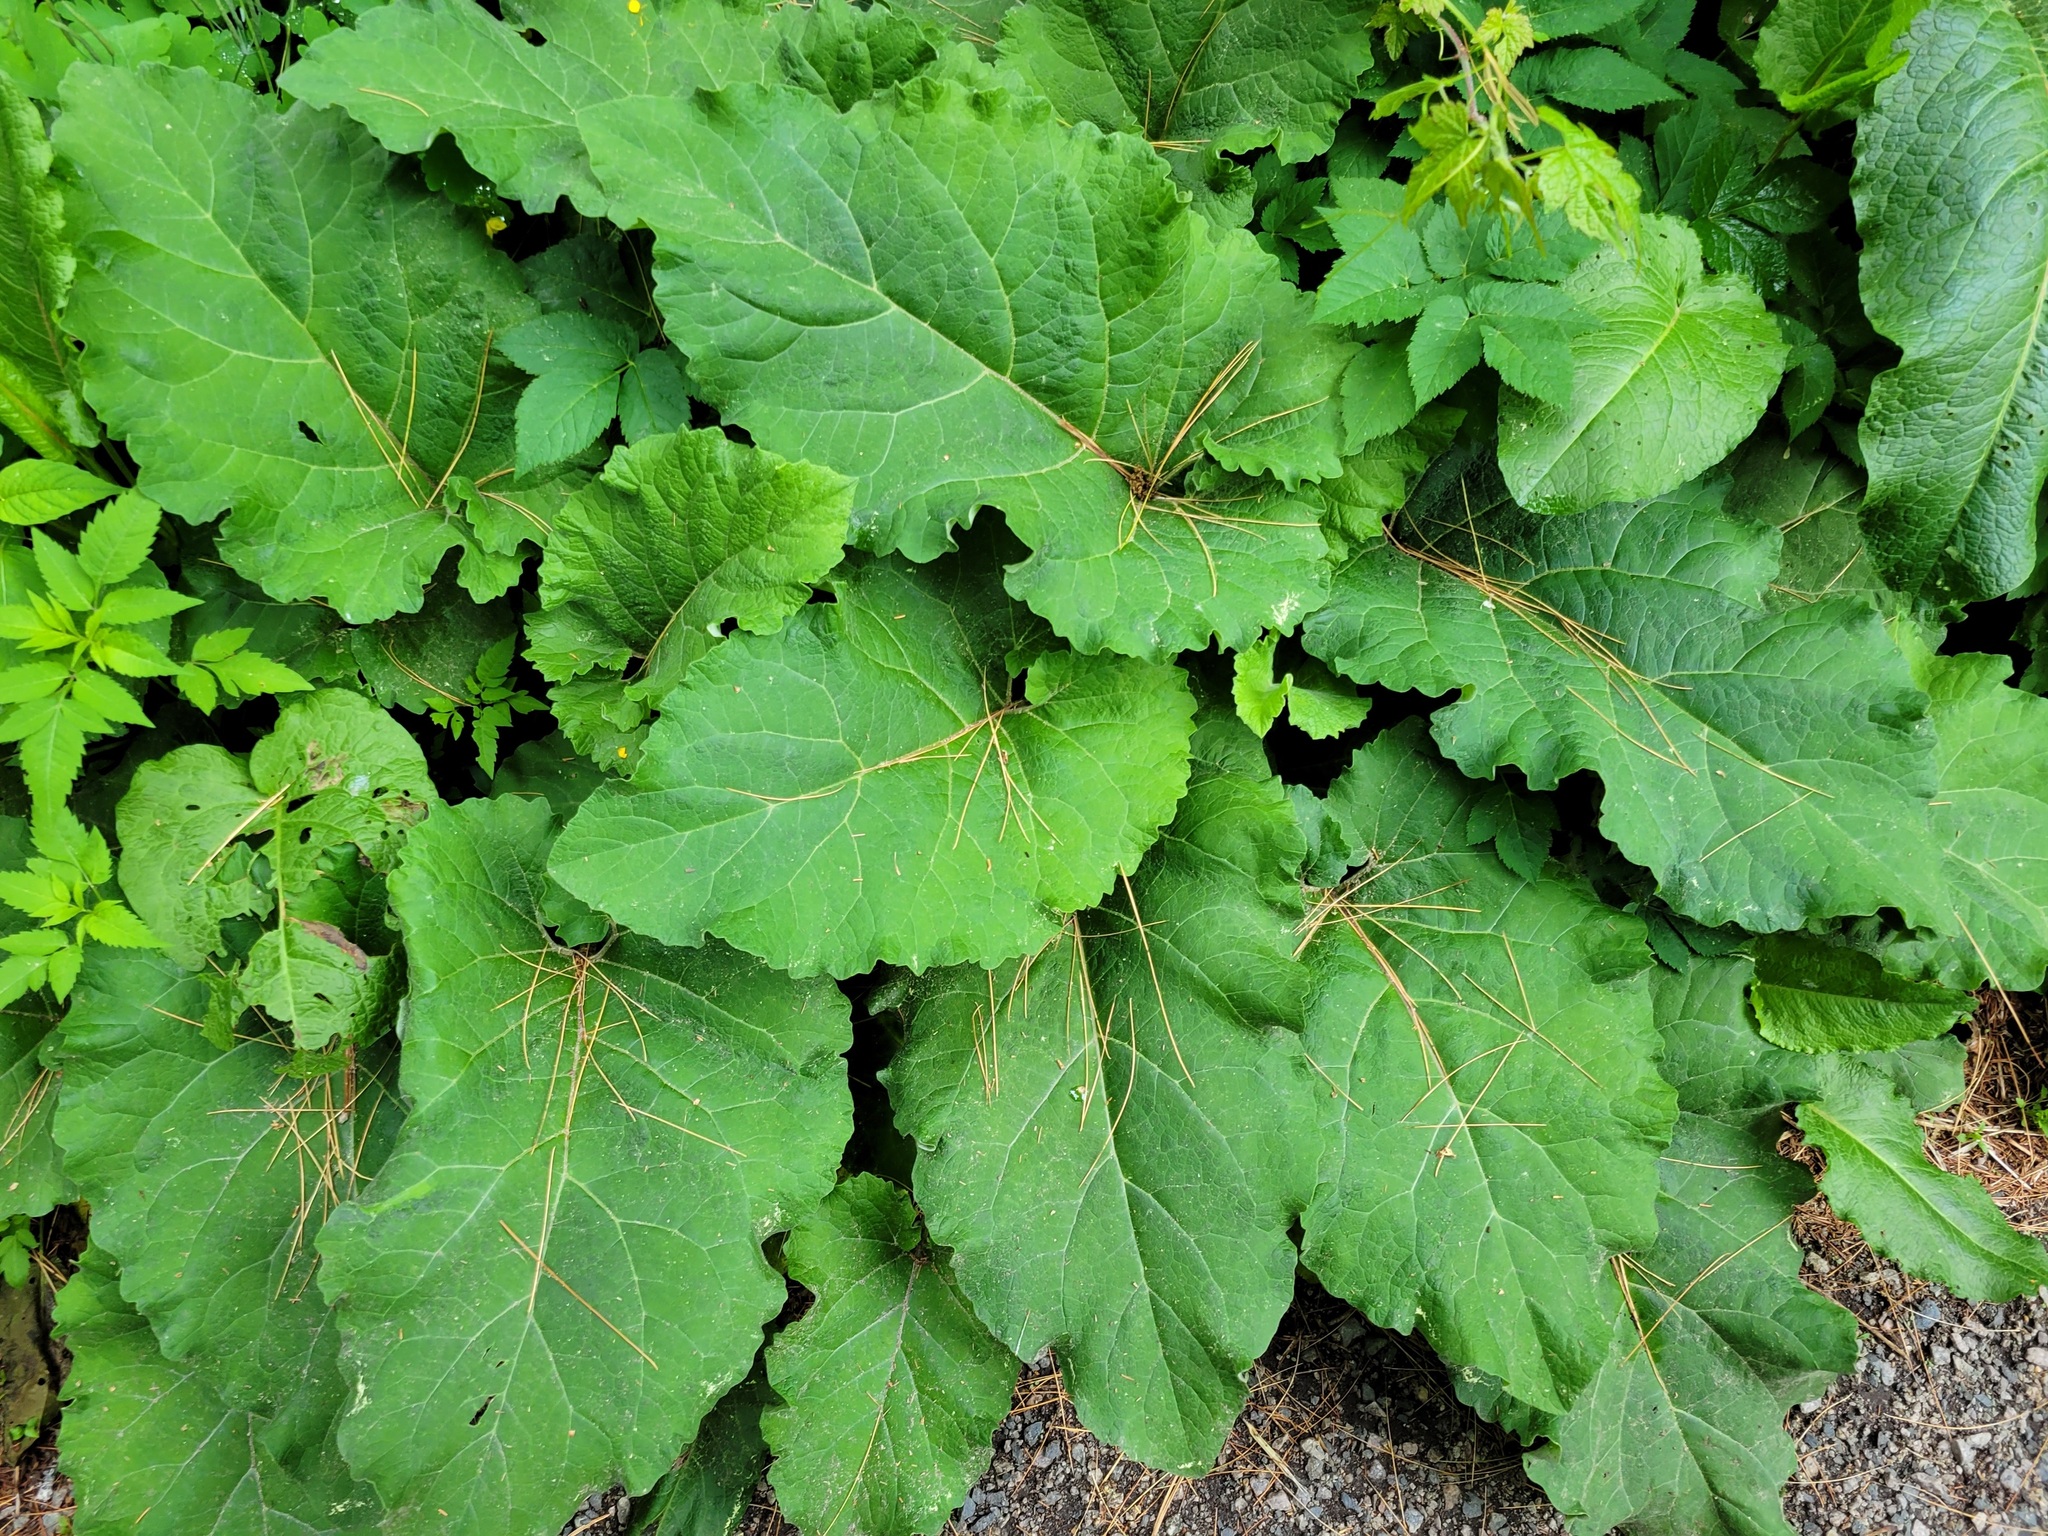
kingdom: Plantae
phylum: Tracheophyta
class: Magnoliopsida
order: Asterales
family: Asteraceae
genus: Arctium
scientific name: Arctium
